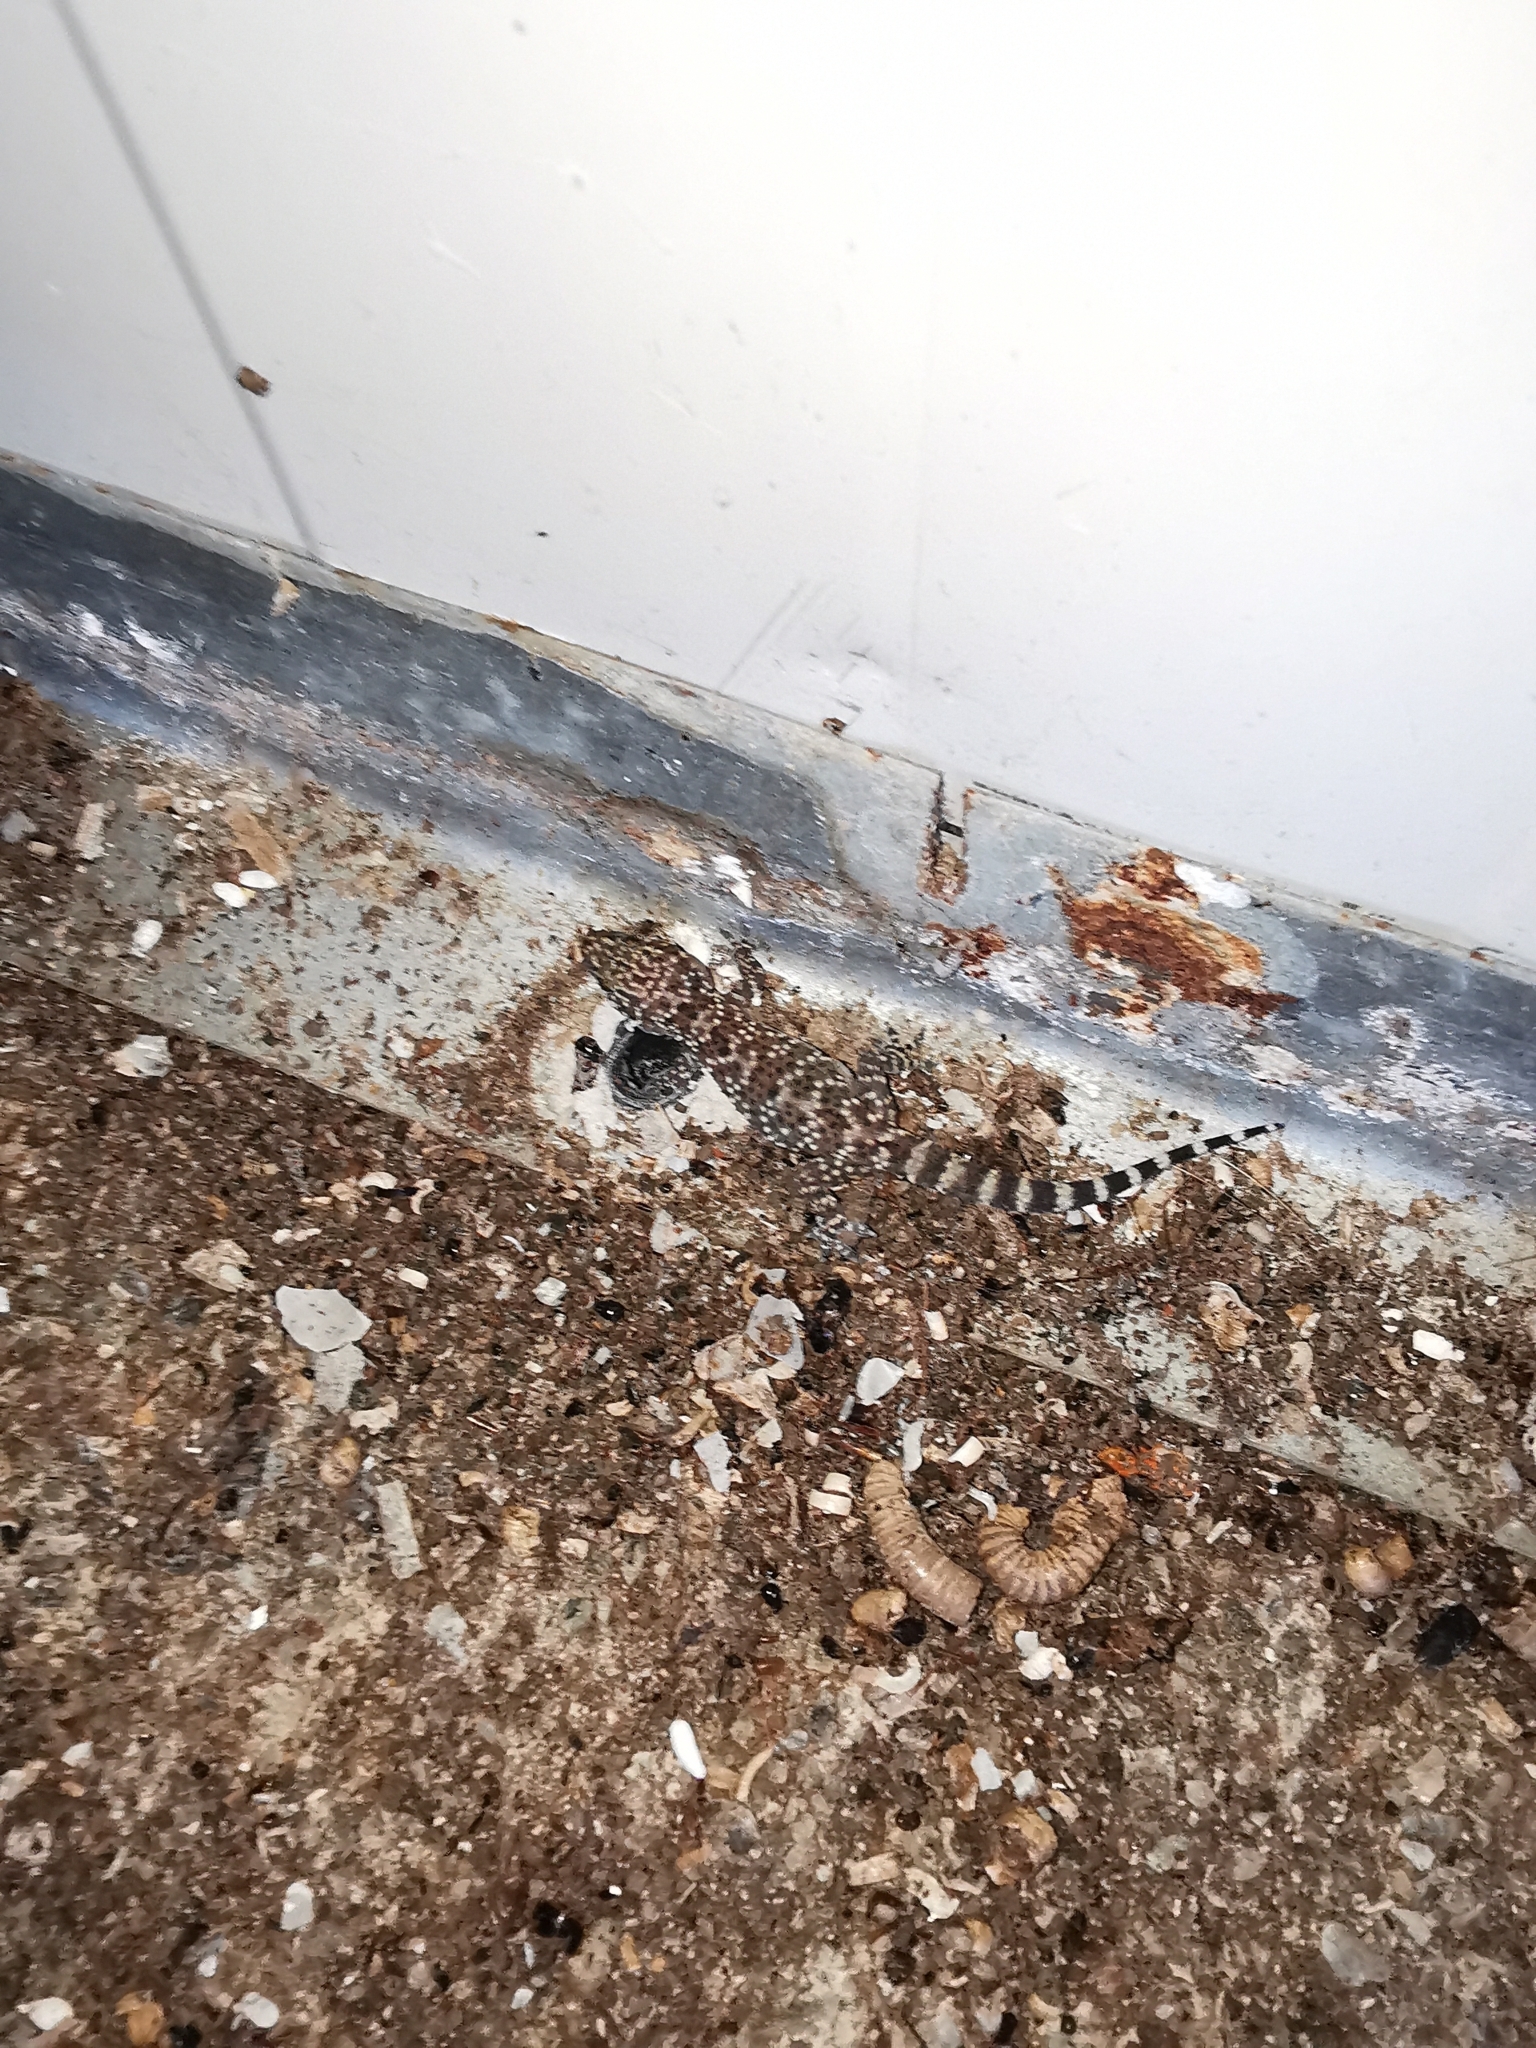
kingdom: Animalia
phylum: Chordata
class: Squamata
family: Gekkonidae
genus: Hemidactylus
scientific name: Hemidactylus turcicus
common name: Turkish gecko
